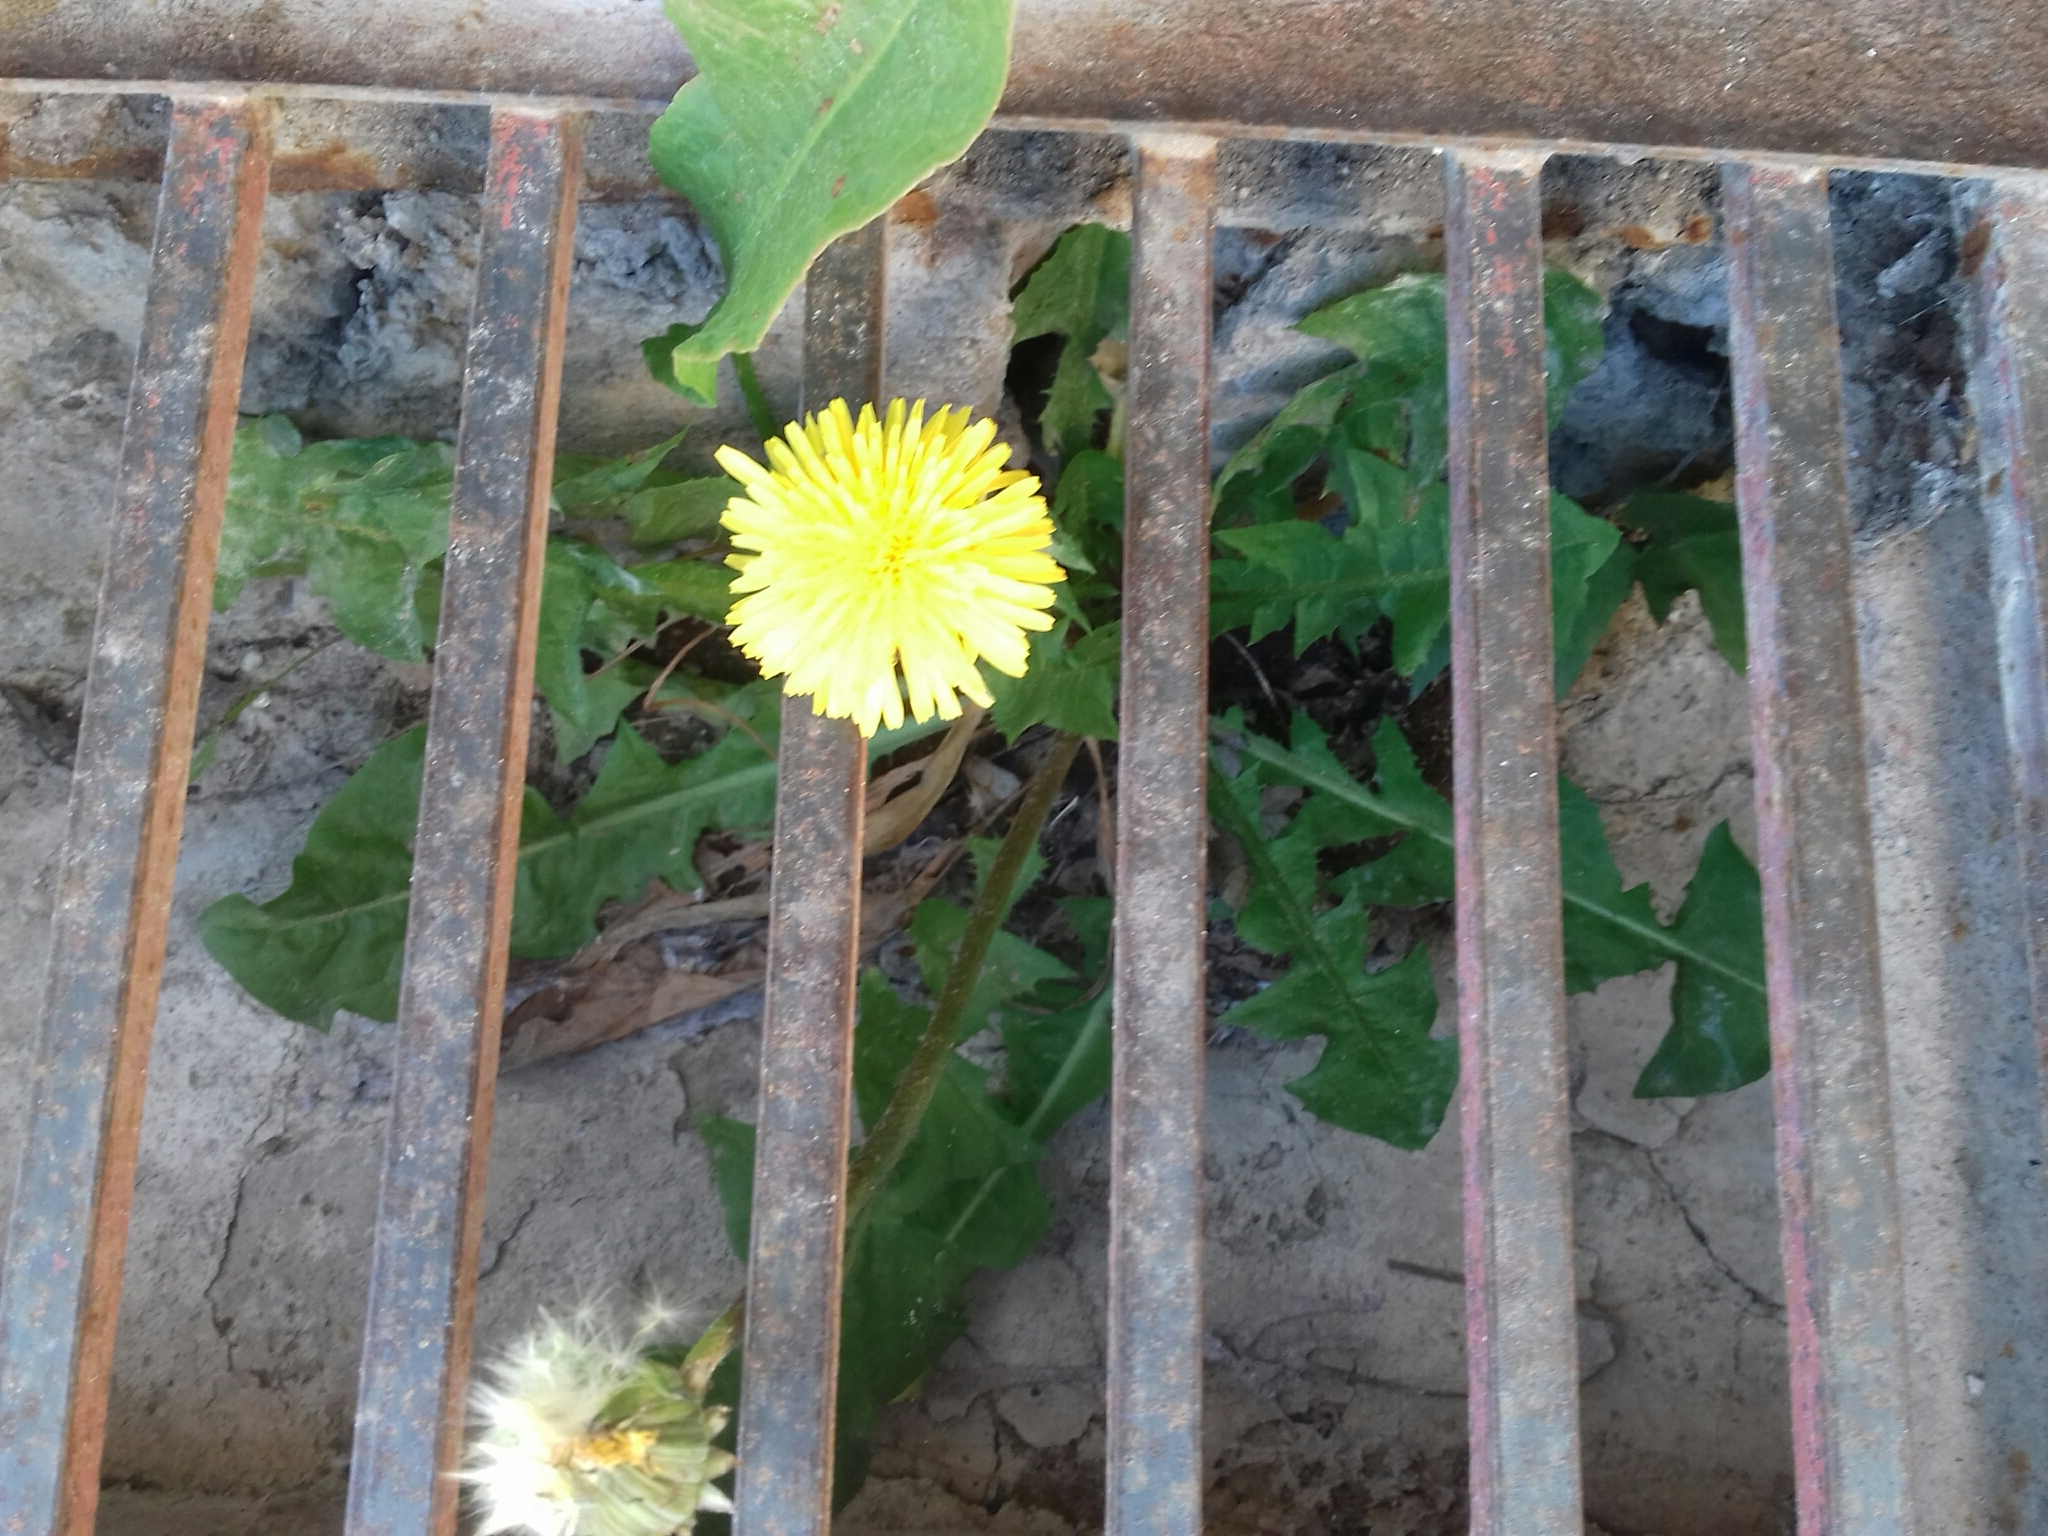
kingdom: Plantae
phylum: Tracheophyta
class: Magnoliopsida
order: Asterales
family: Asteraceae
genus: Taraxacum
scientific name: Taraxacum officinale
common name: Common dandelion
